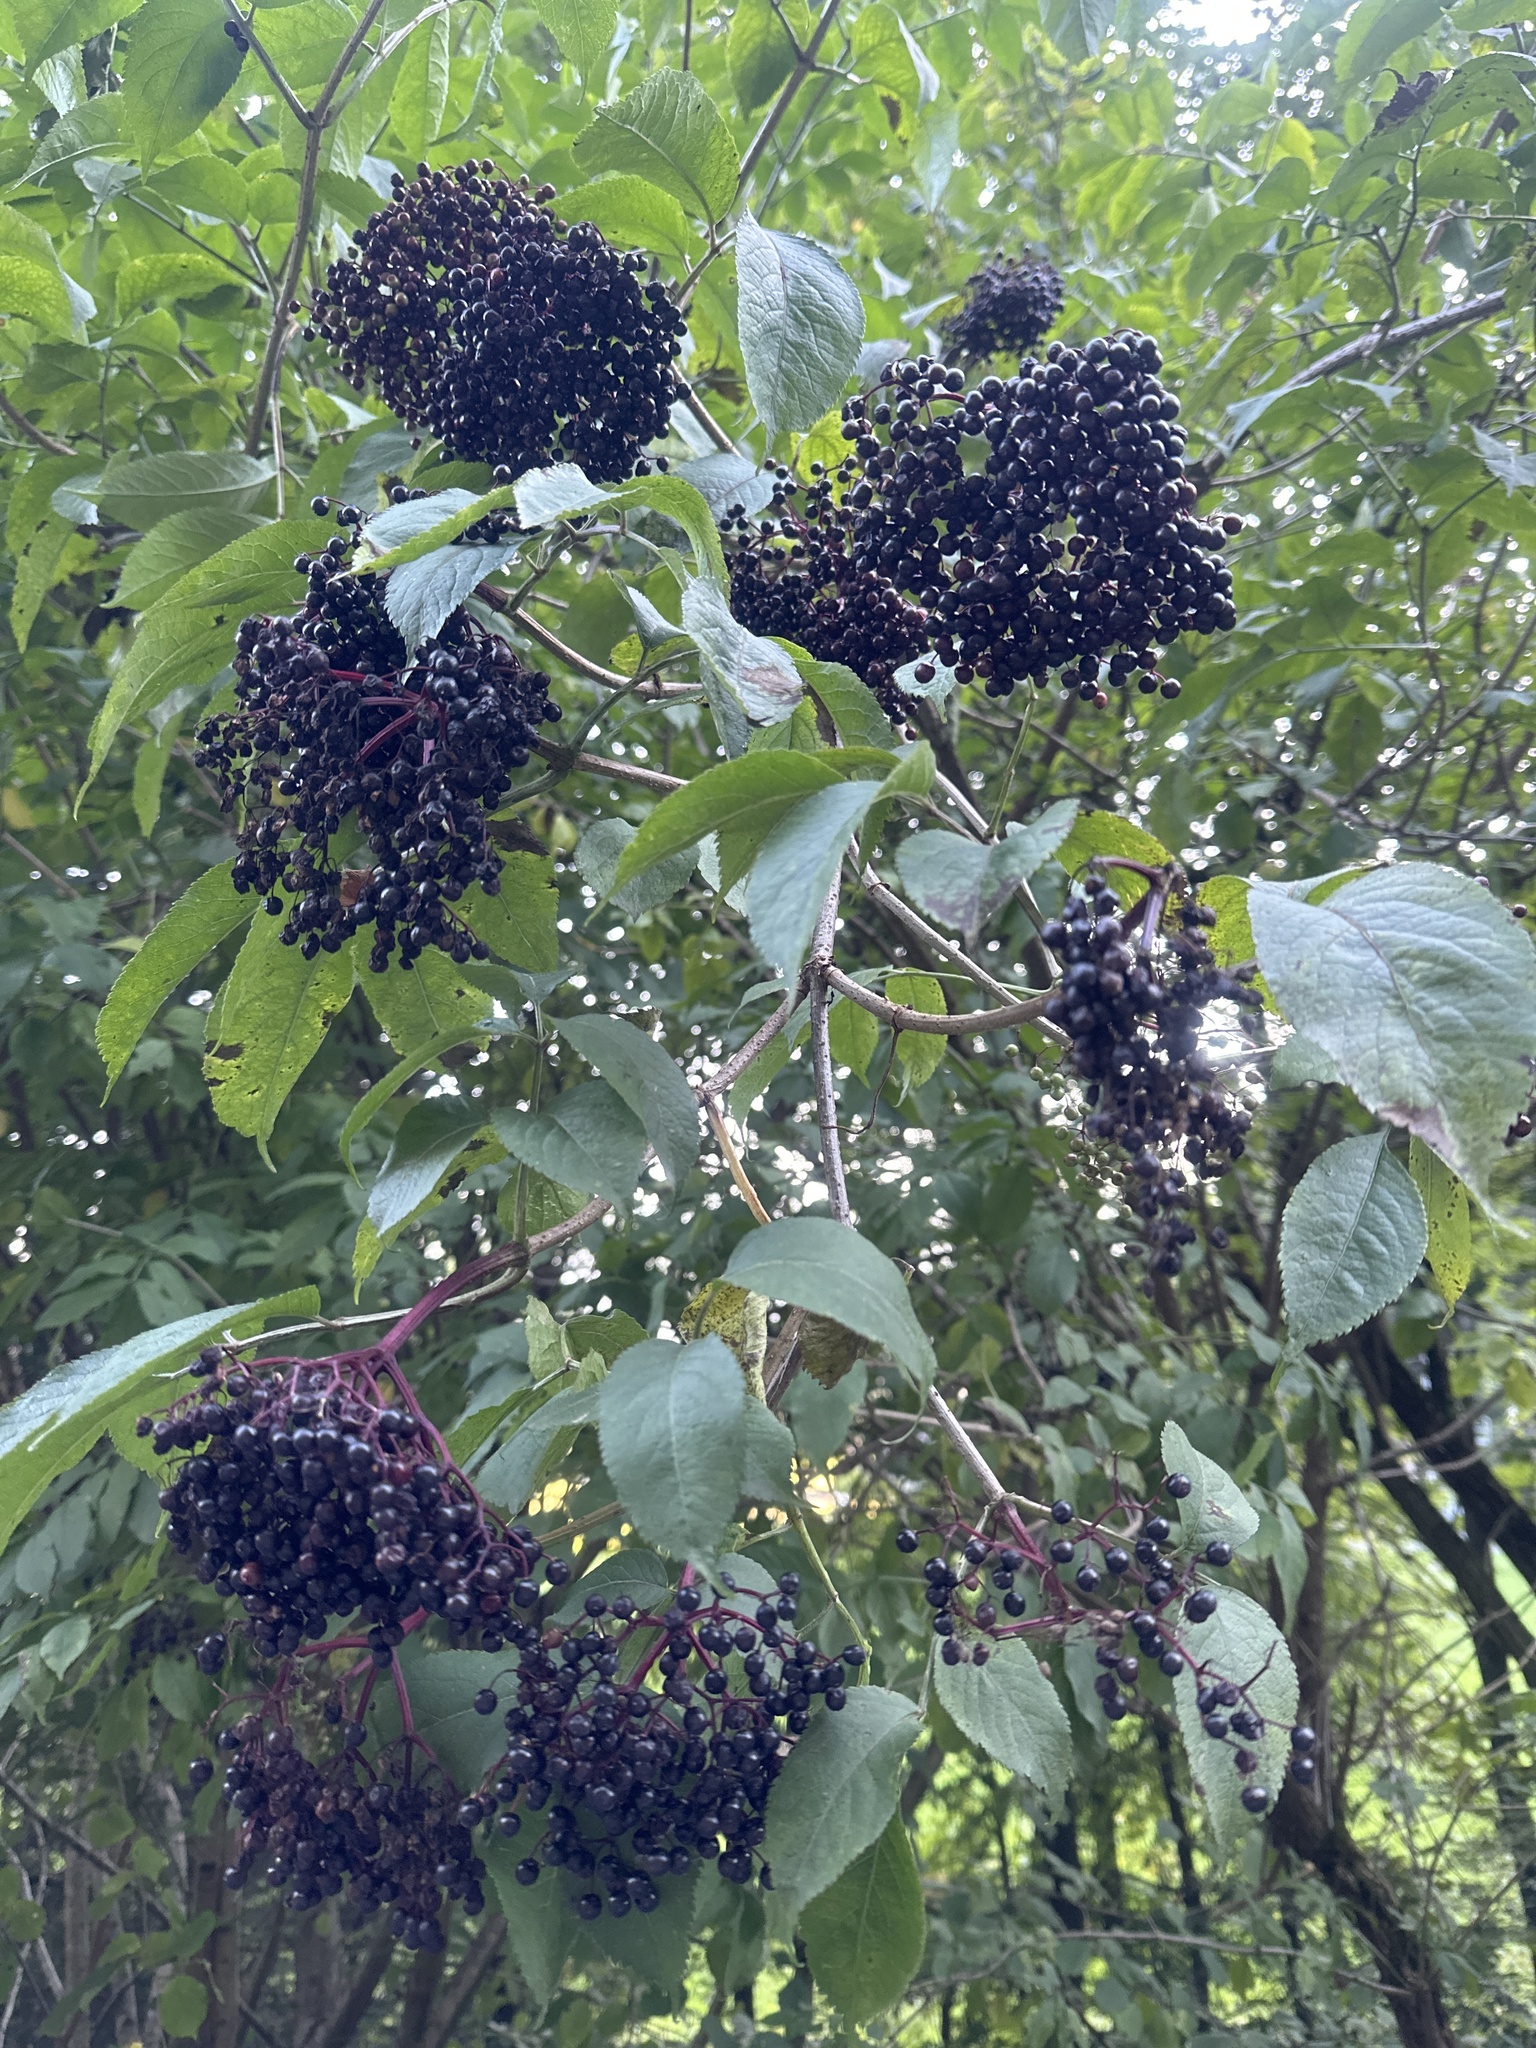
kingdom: Plantae
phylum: Tracheophyta
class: Magnoliopsida
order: Dipsacales
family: Viburnaceae
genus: Sambucus
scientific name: Sambucus nigra
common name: Elder
